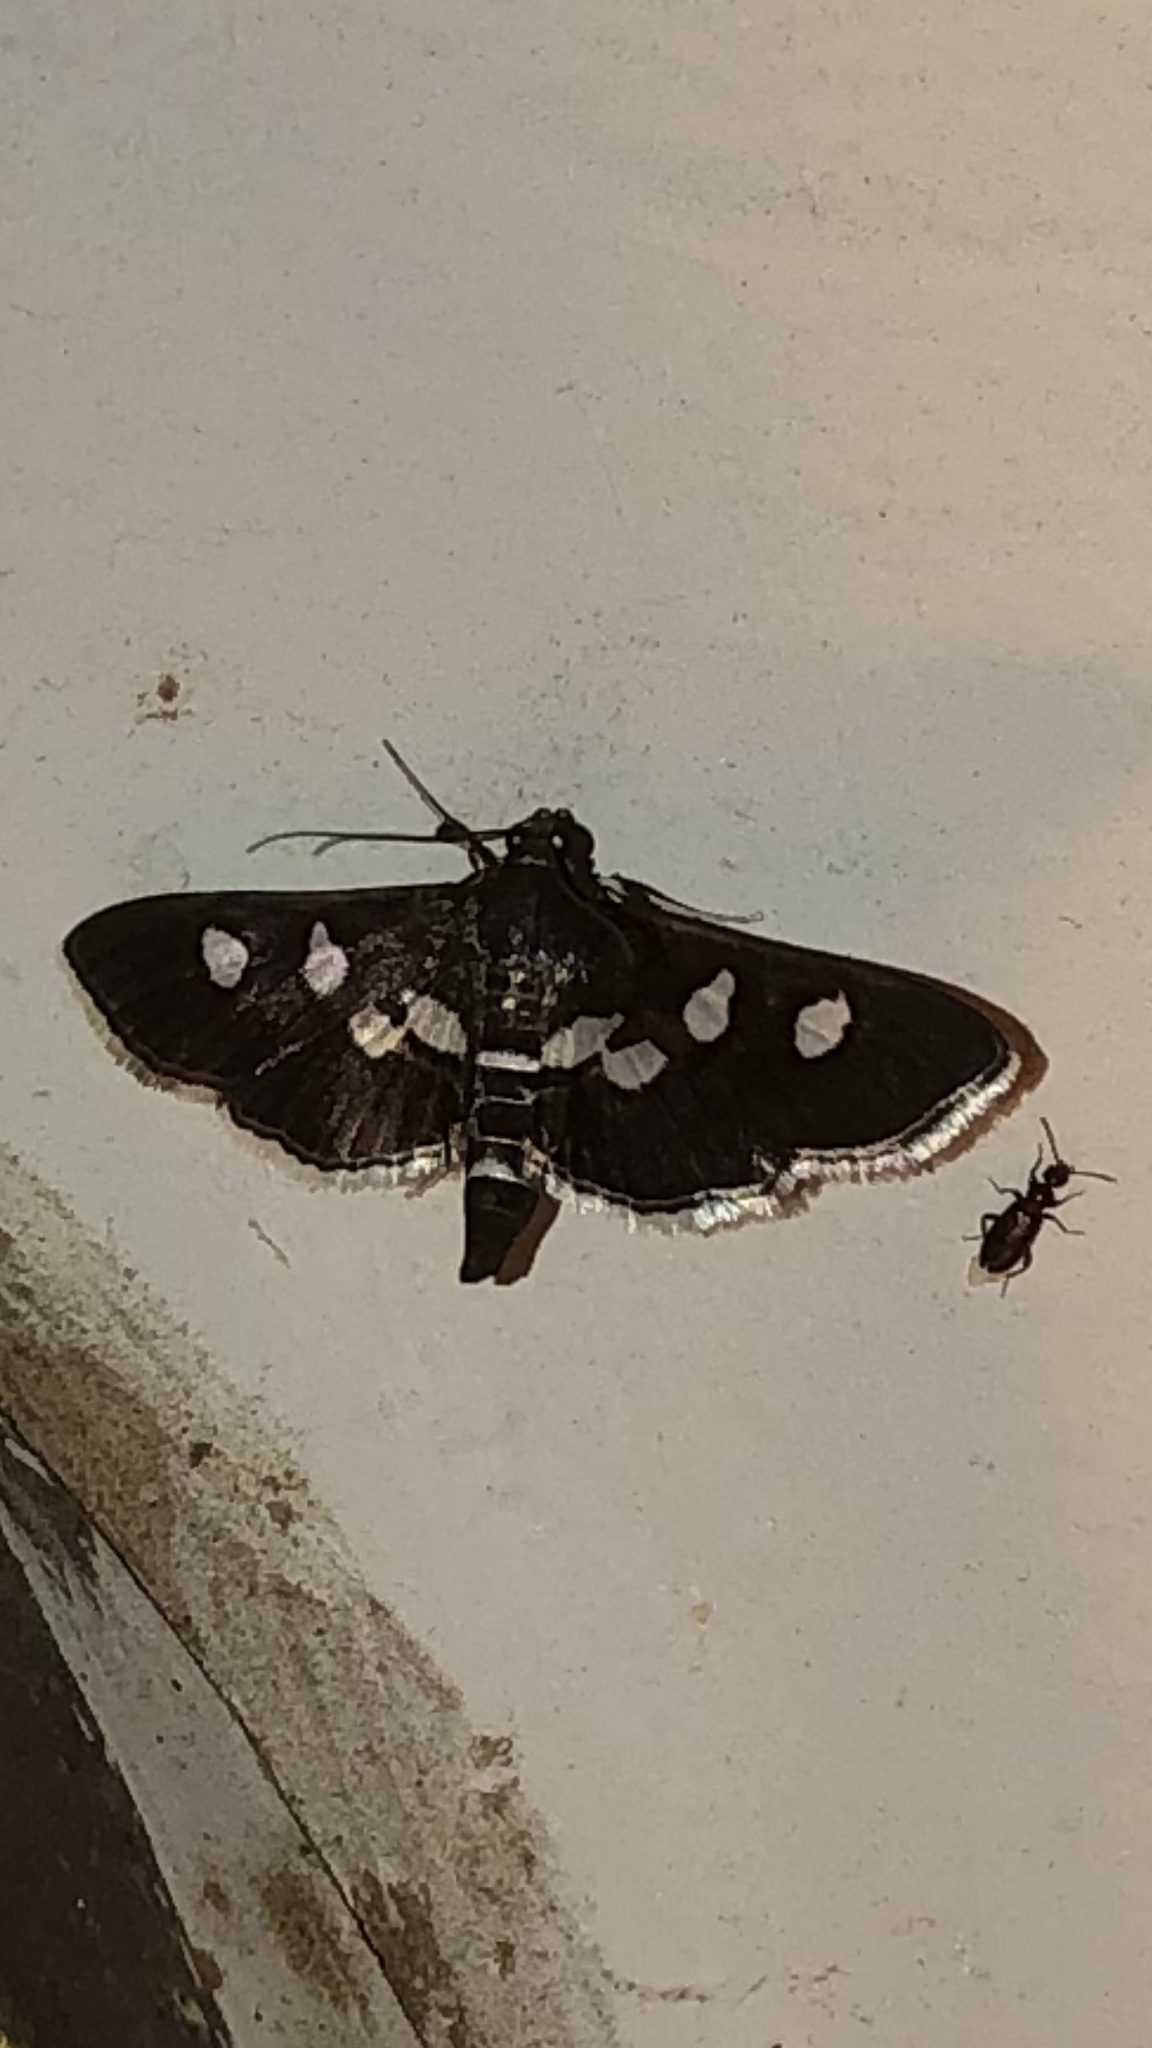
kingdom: Animalia
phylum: Arthropoda
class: Insecta
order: Lepidoptera
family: Crambidae
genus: Desmia
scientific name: Desmia funeralis
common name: Grape leaf folder moth
